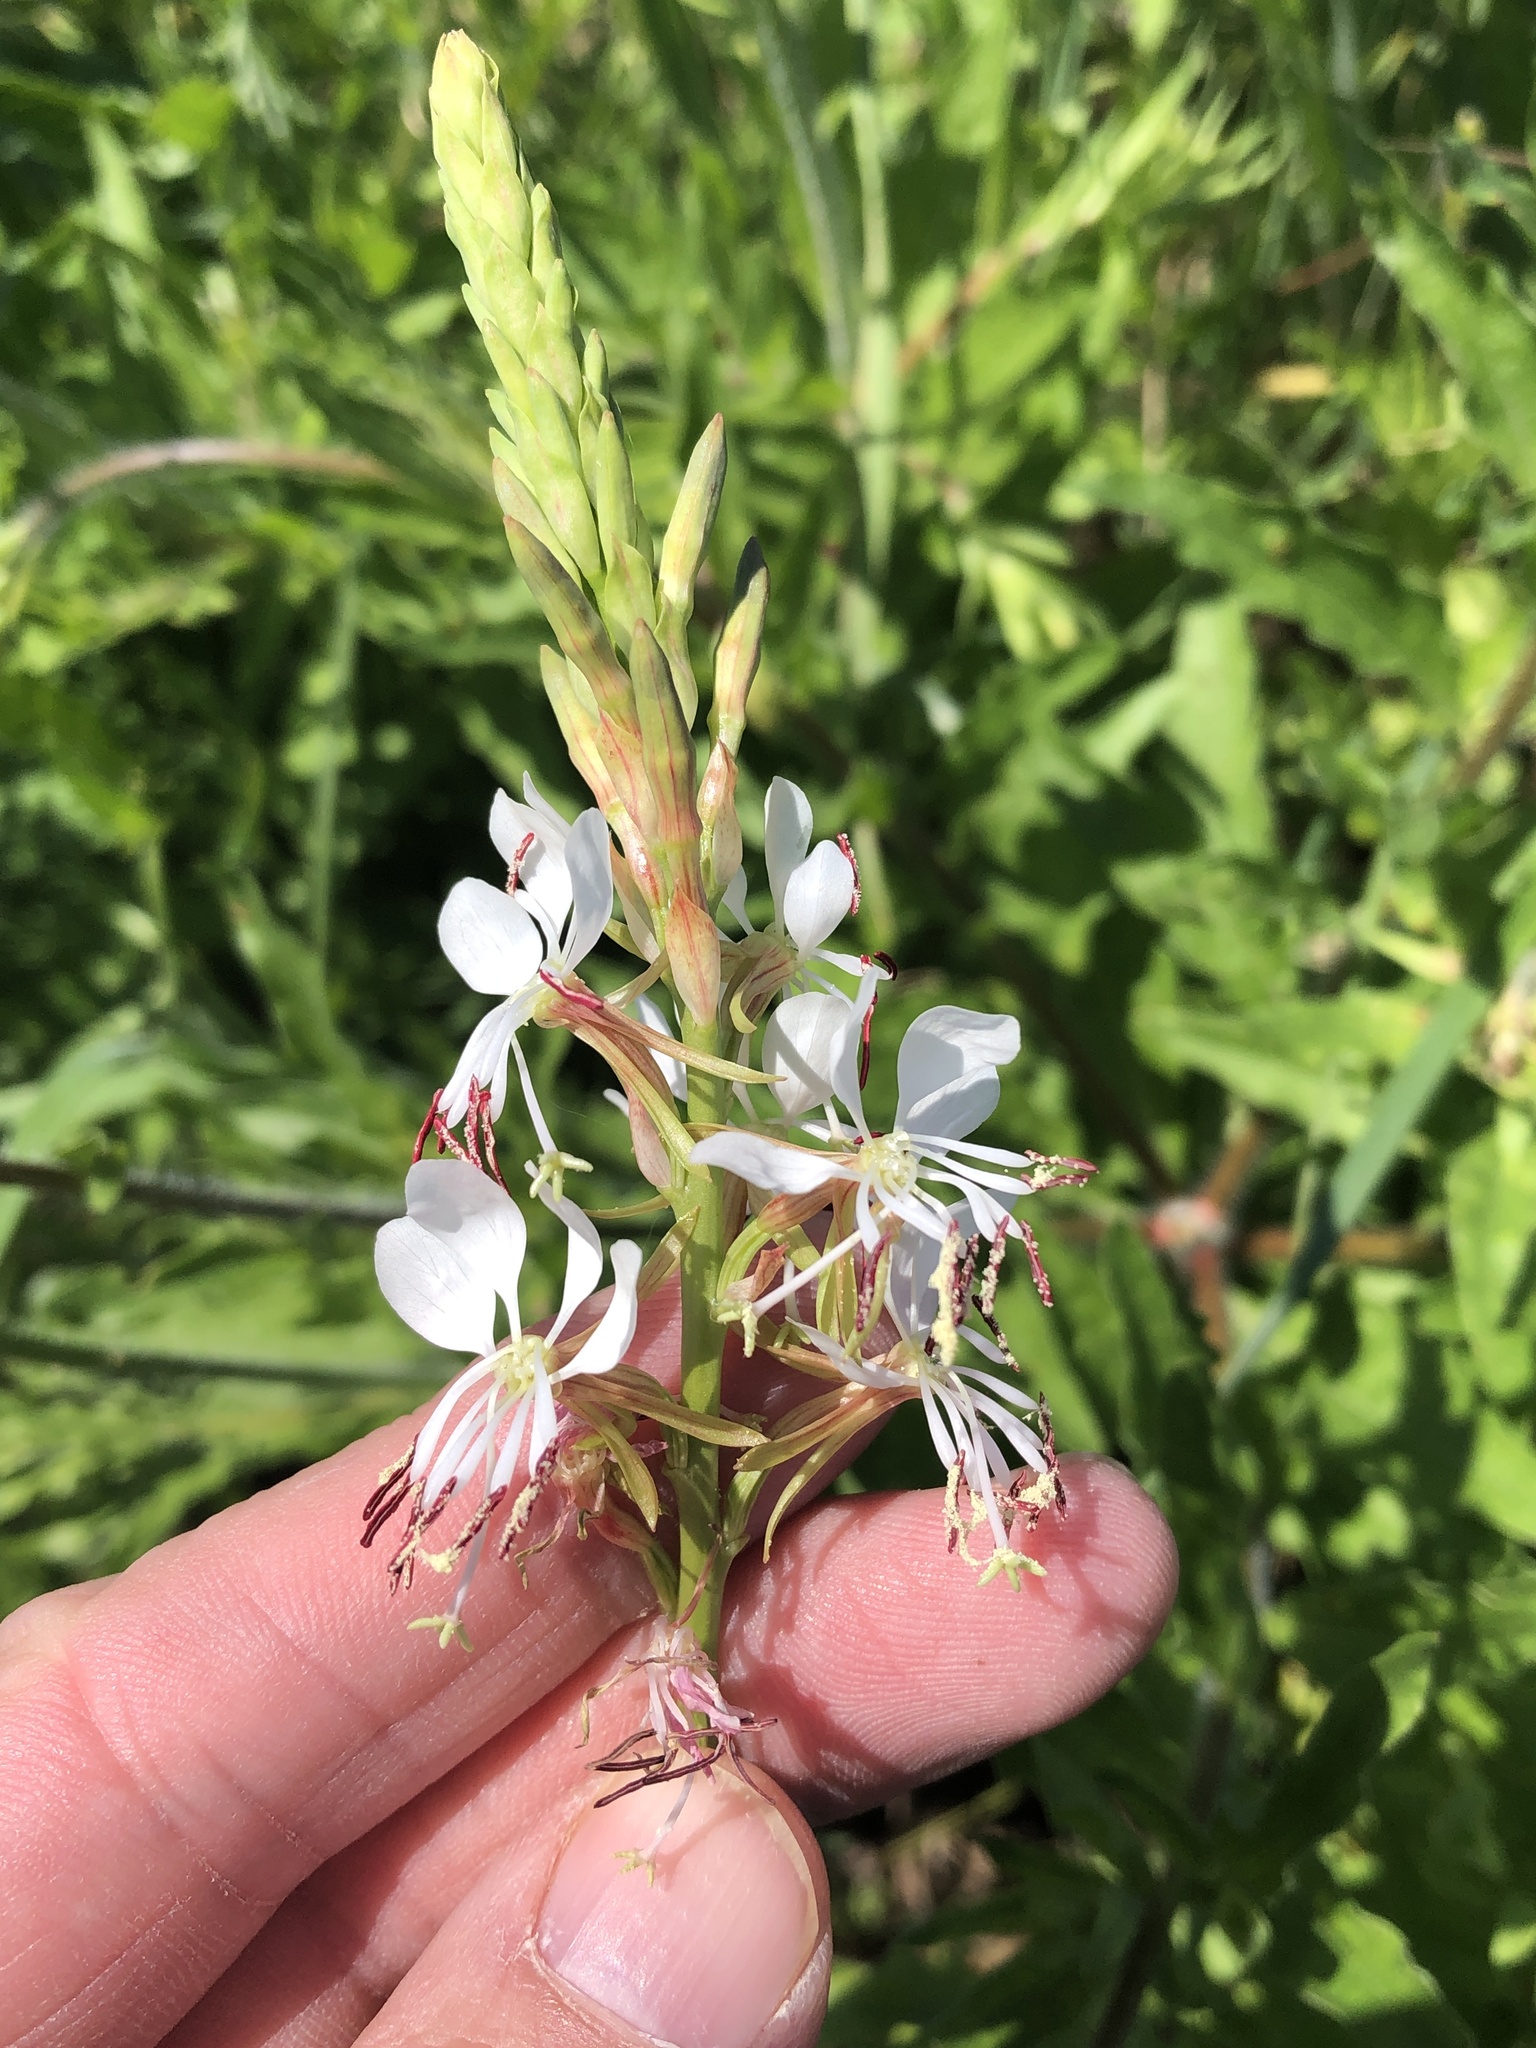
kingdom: Plantae
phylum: Tracheophyta
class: Magnoliopsida
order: Myrtales
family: Onagraceae
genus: Oenothera
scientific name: Oenothera suffulta
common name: Kisses
